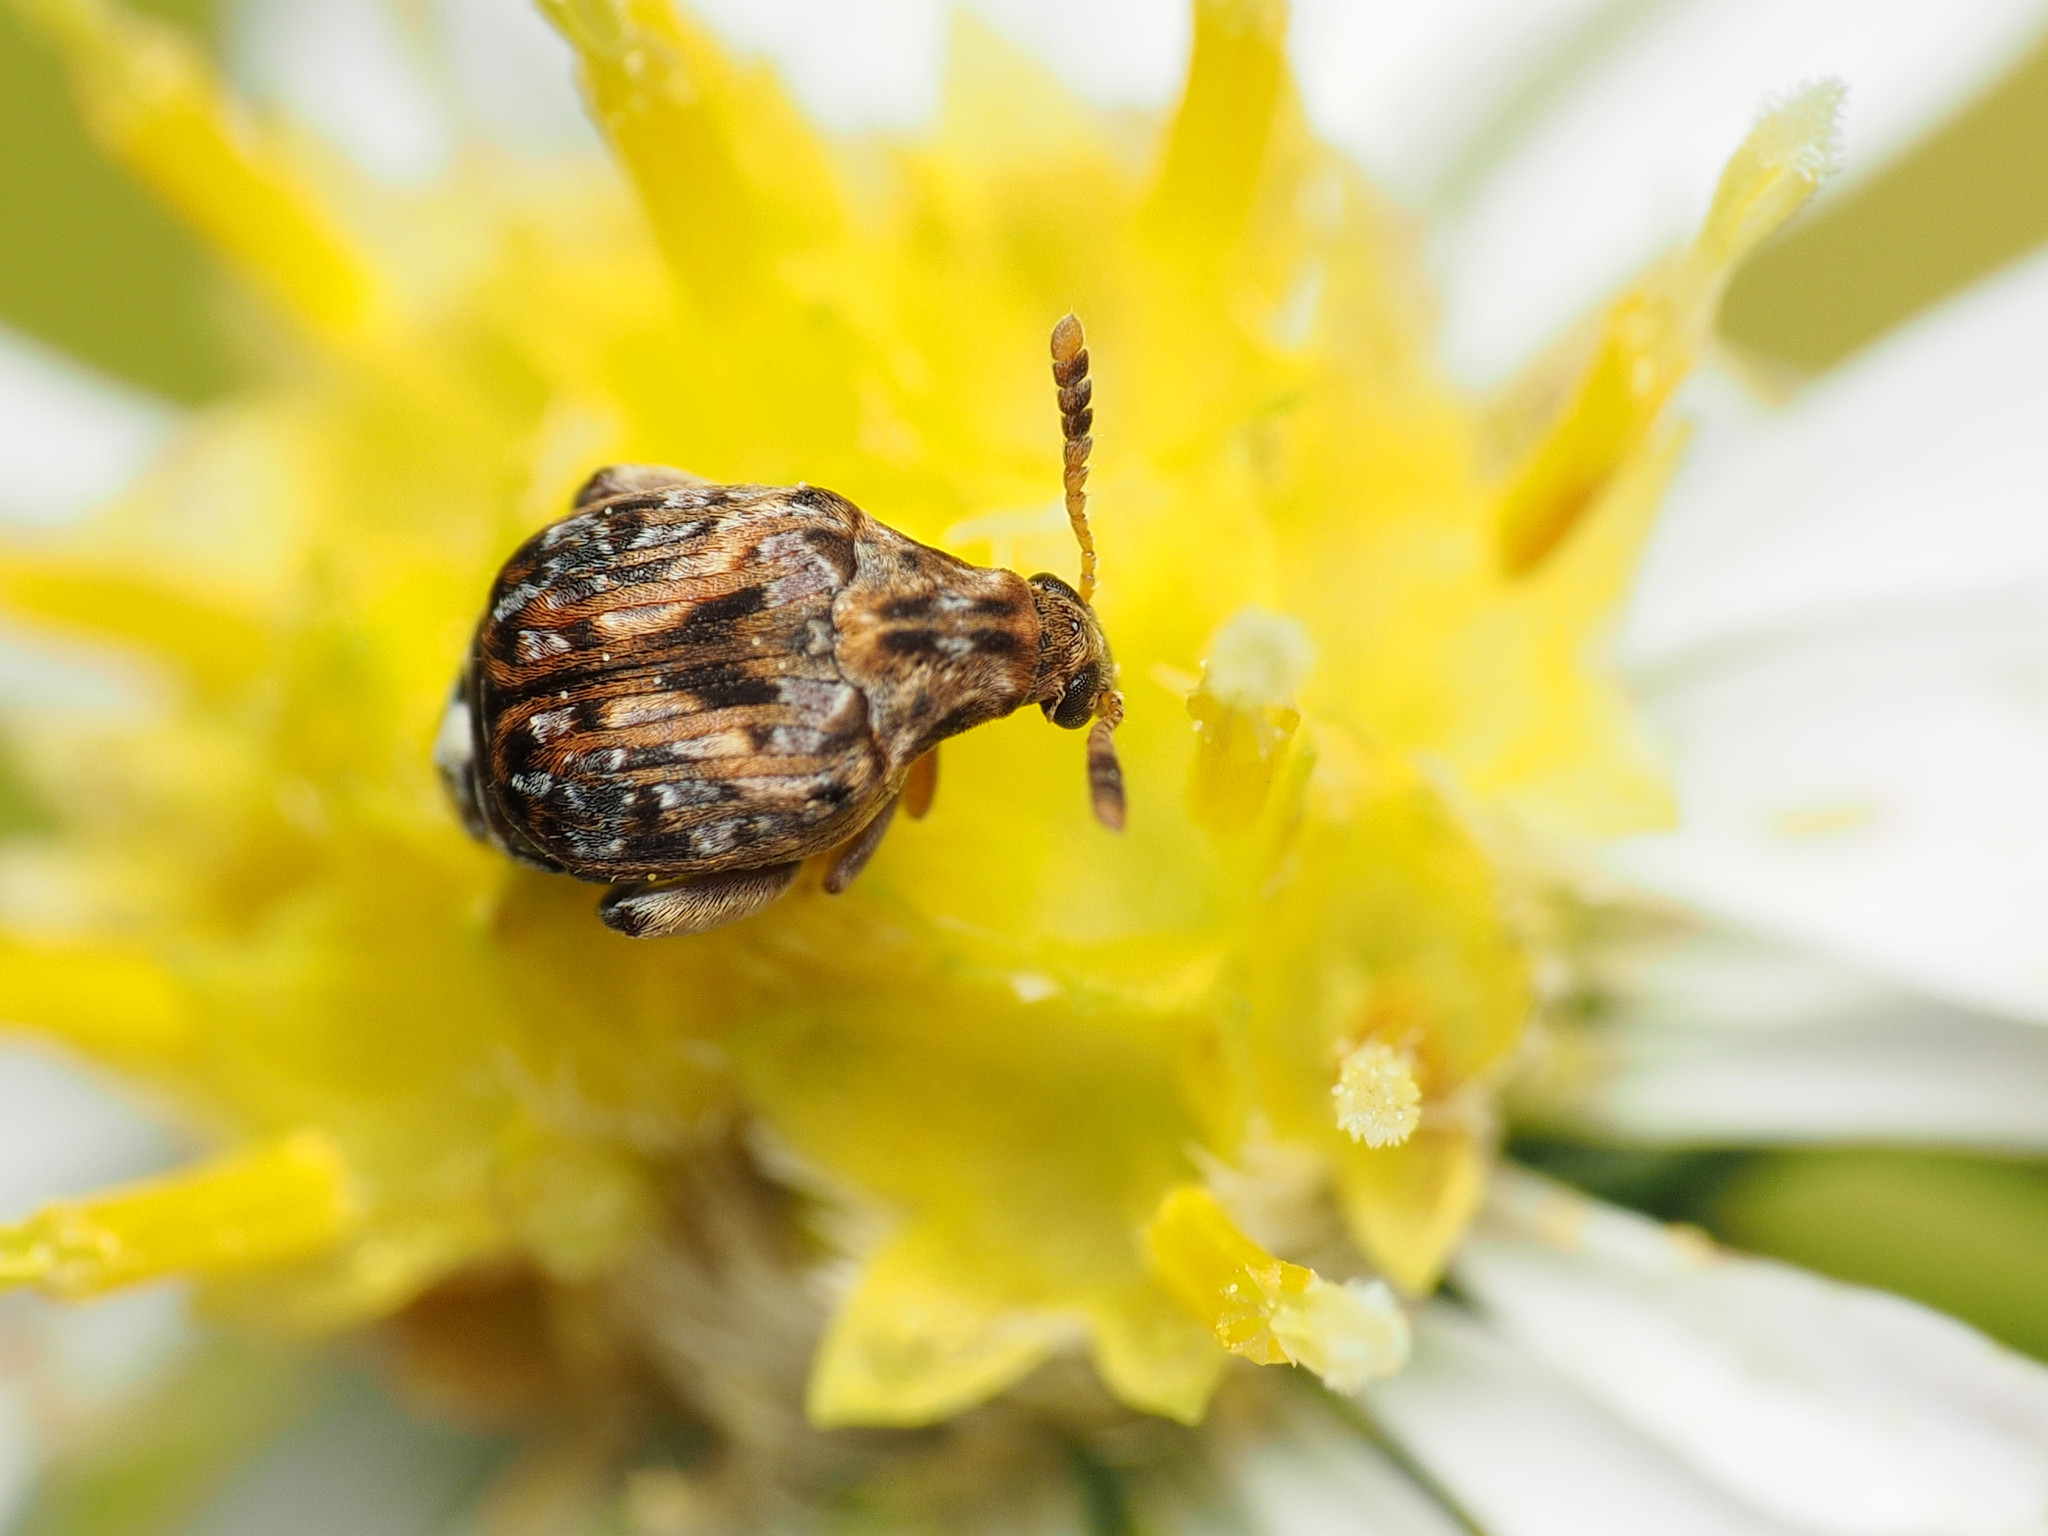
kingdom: Animalia
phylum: Arthropoda
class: Insecta
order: Coleoptera
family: Chrysomelidae
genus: Gibbobruchus
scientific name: Gibbobruchus mimus
